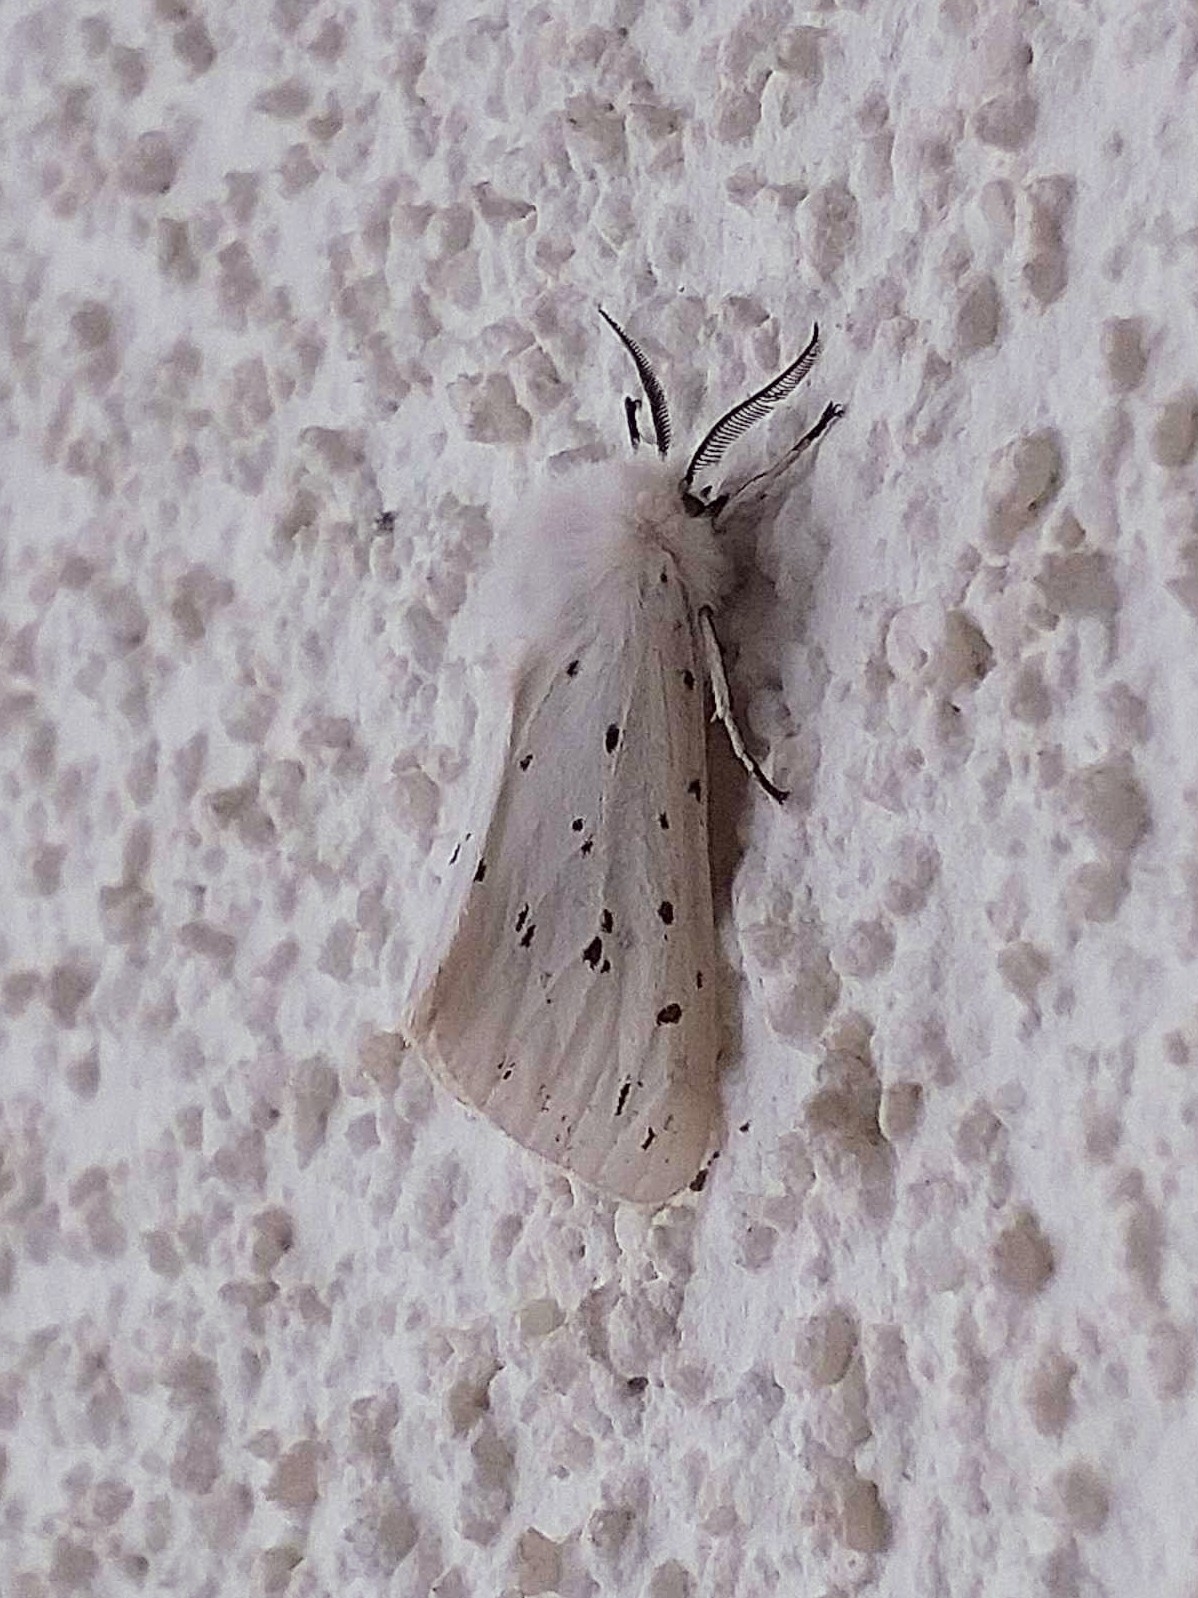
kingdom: Animalia
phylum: Arthropoda
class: Insecta
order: Lepidoptera
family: Erebidae
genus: Spilosoma
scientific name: Spilosoma lubricipeda
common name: White ermine
